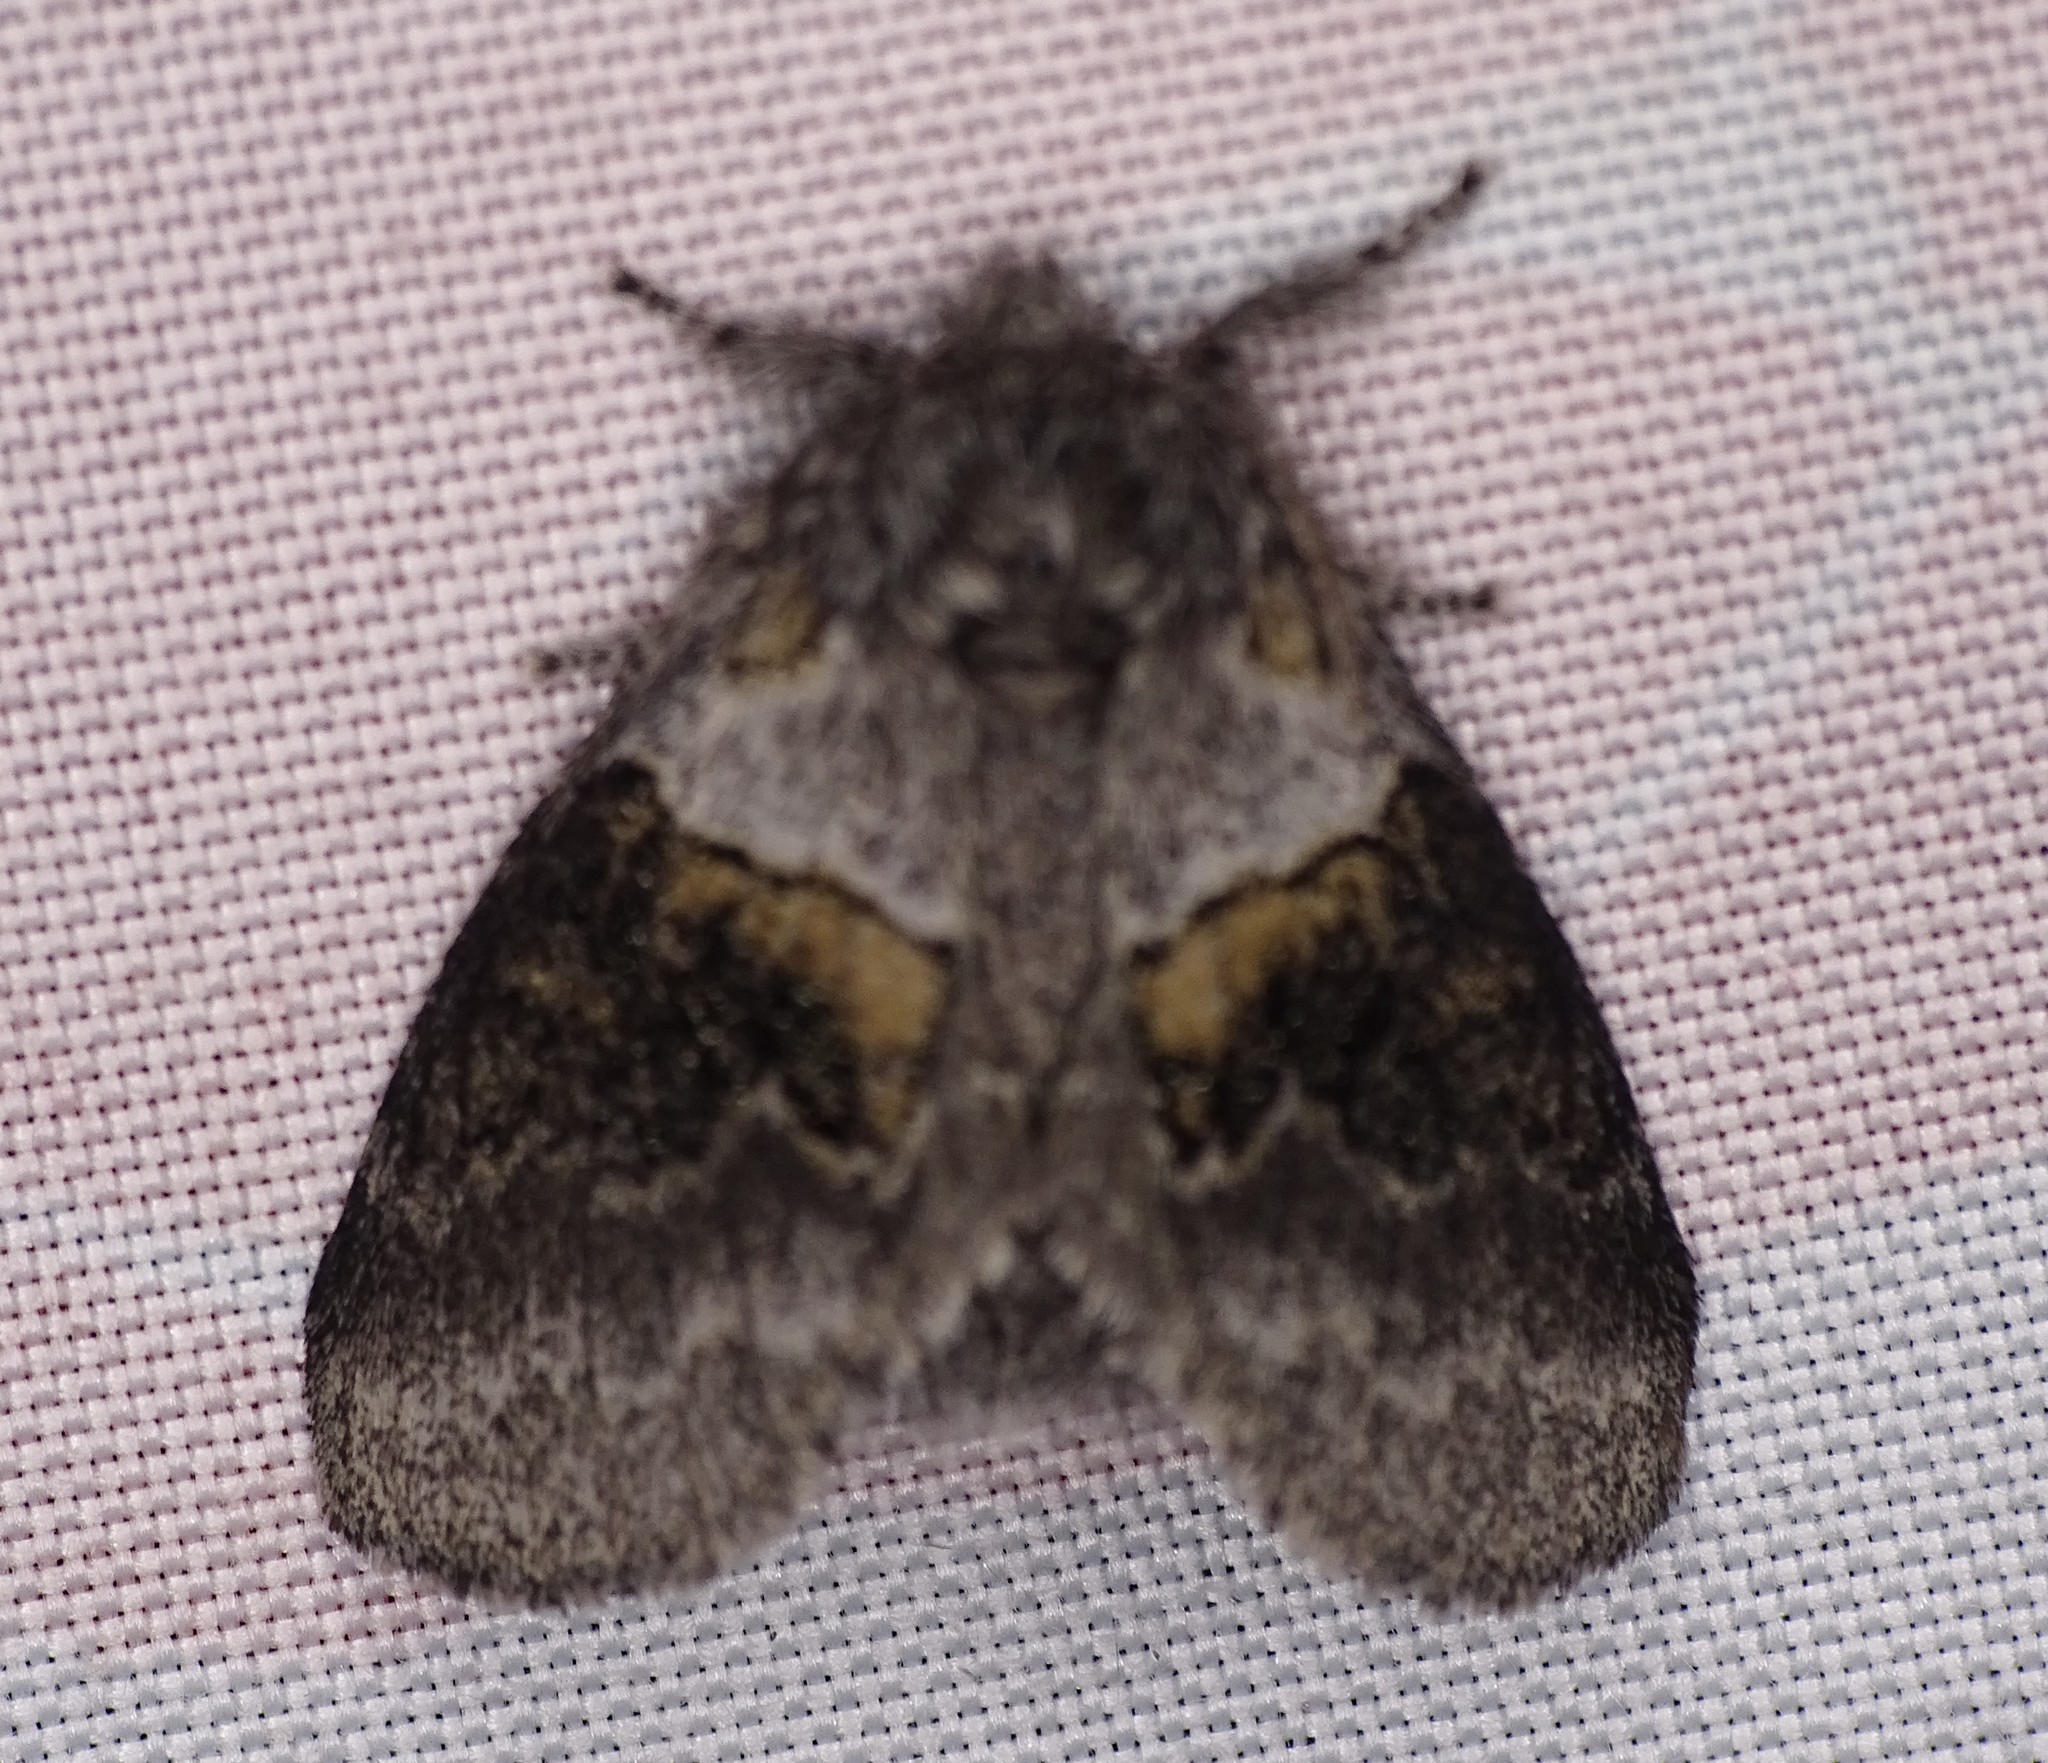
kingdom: Animalia
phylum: Arthropoda
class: Insecta
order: Lepidoptera
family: Notodontidae
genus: Gluphisia
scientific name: Gluphisia septentrionis
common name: Common gluphisia
